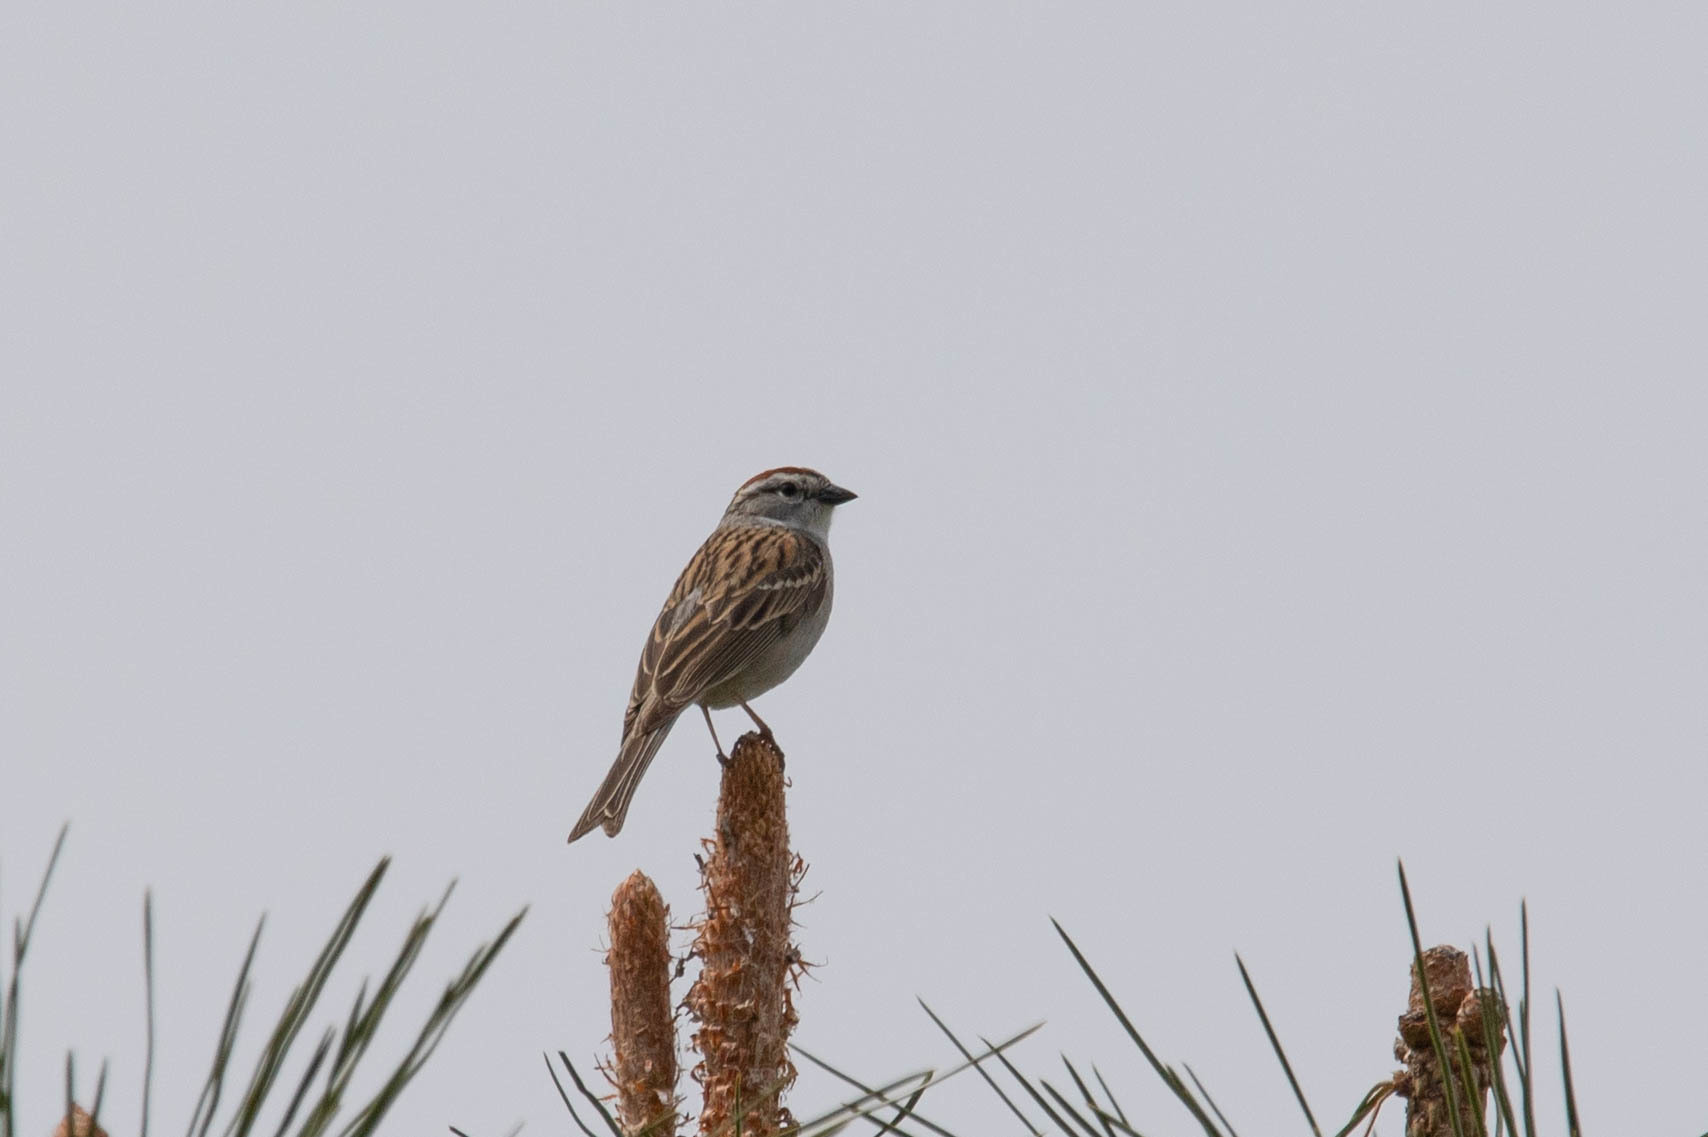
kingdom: Animalia
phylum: Chordata
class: Aves
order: Passeriformes
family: Passerellidae
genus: Spizella
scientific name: Spizella passerina
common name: Chipping sparrow
